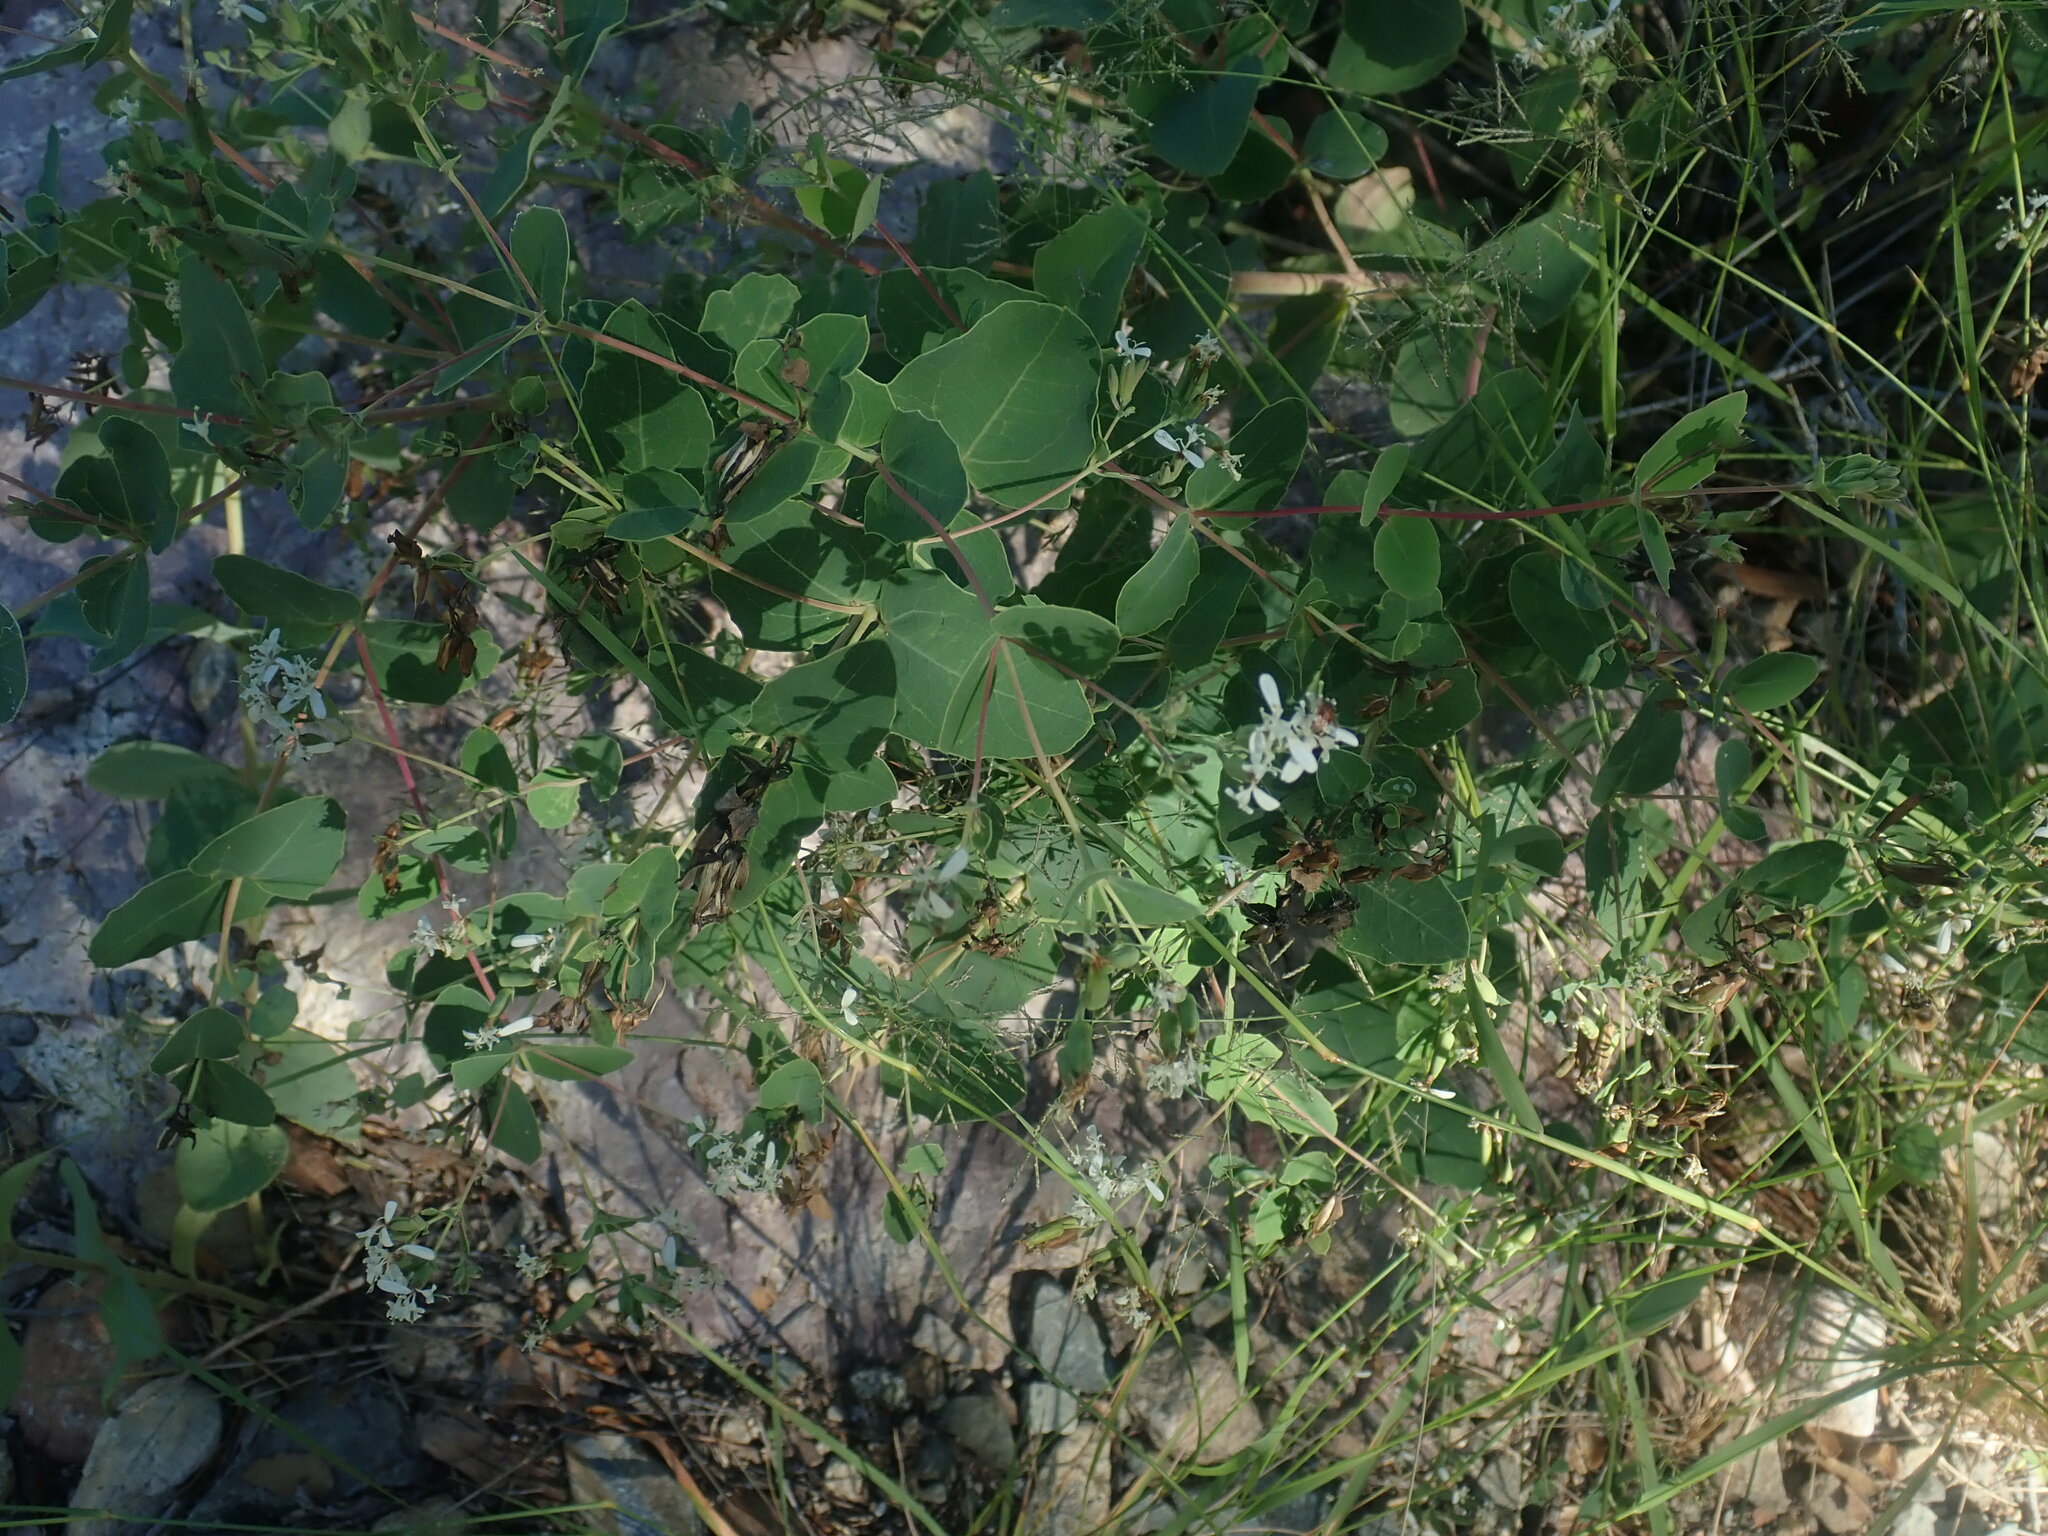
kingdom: Plantae
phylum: Tracheophyta
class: Magnoliopsida
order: Asterales
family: Asteraceae
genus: Guardiola
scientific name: Guardiola platyphylla
